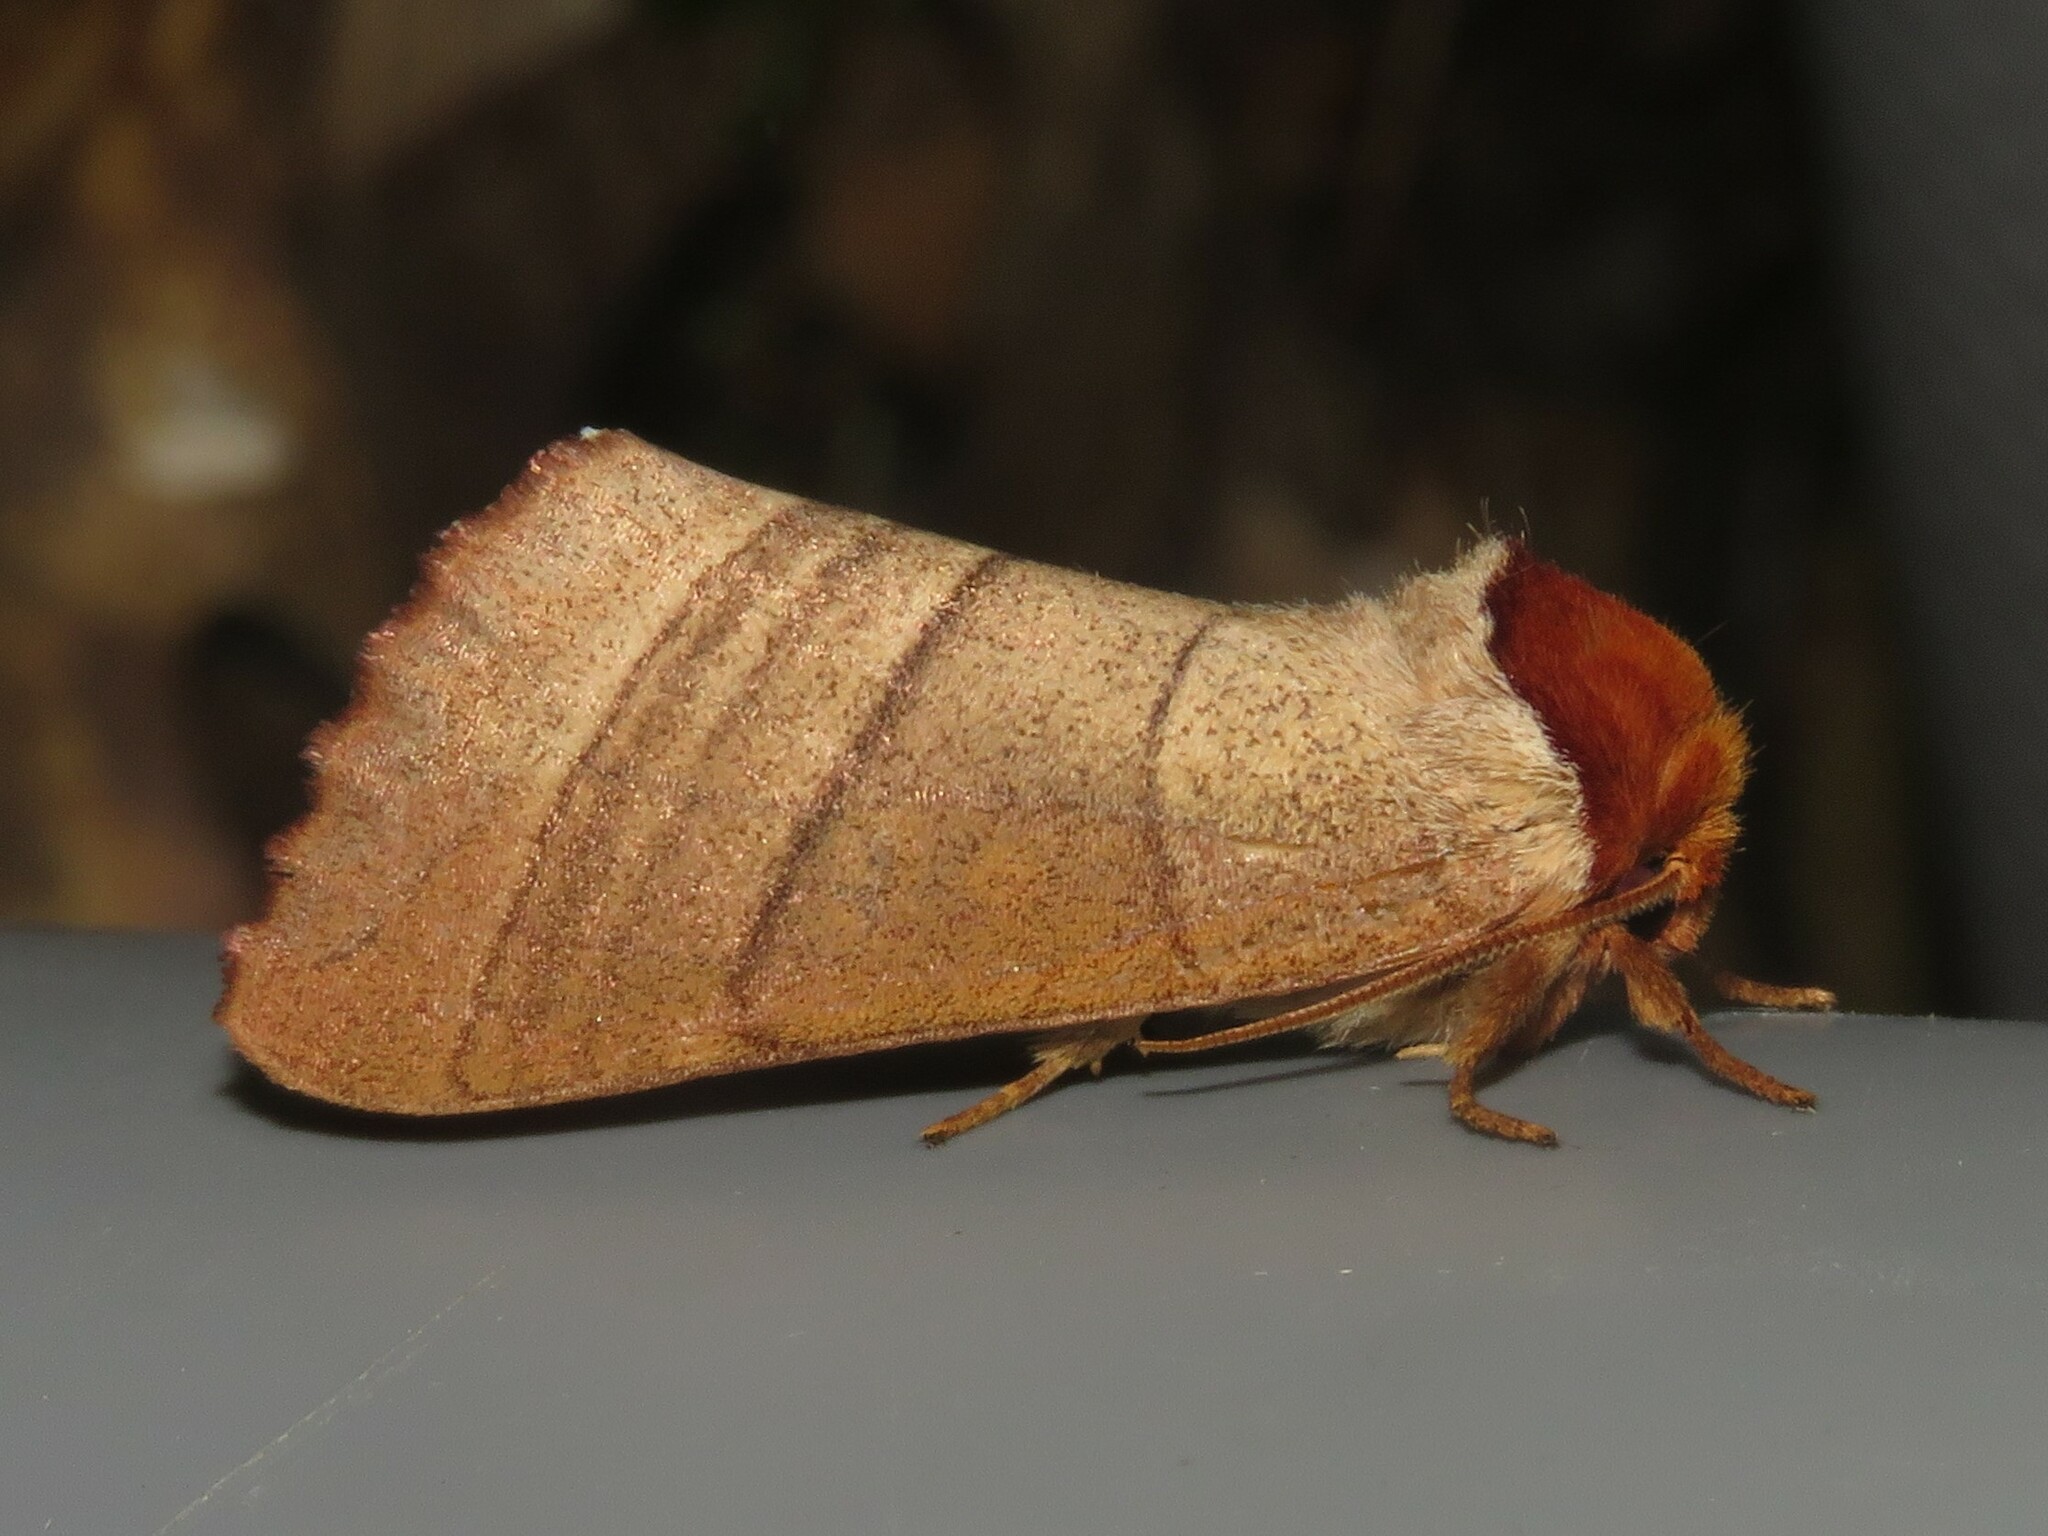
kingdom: Animalia
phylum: Arthropoda
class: Insecta
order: Lepidoptera
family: Notodontidae
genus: Datana
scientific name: Datana ministra
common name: Yellow-necked caterpillar moth
